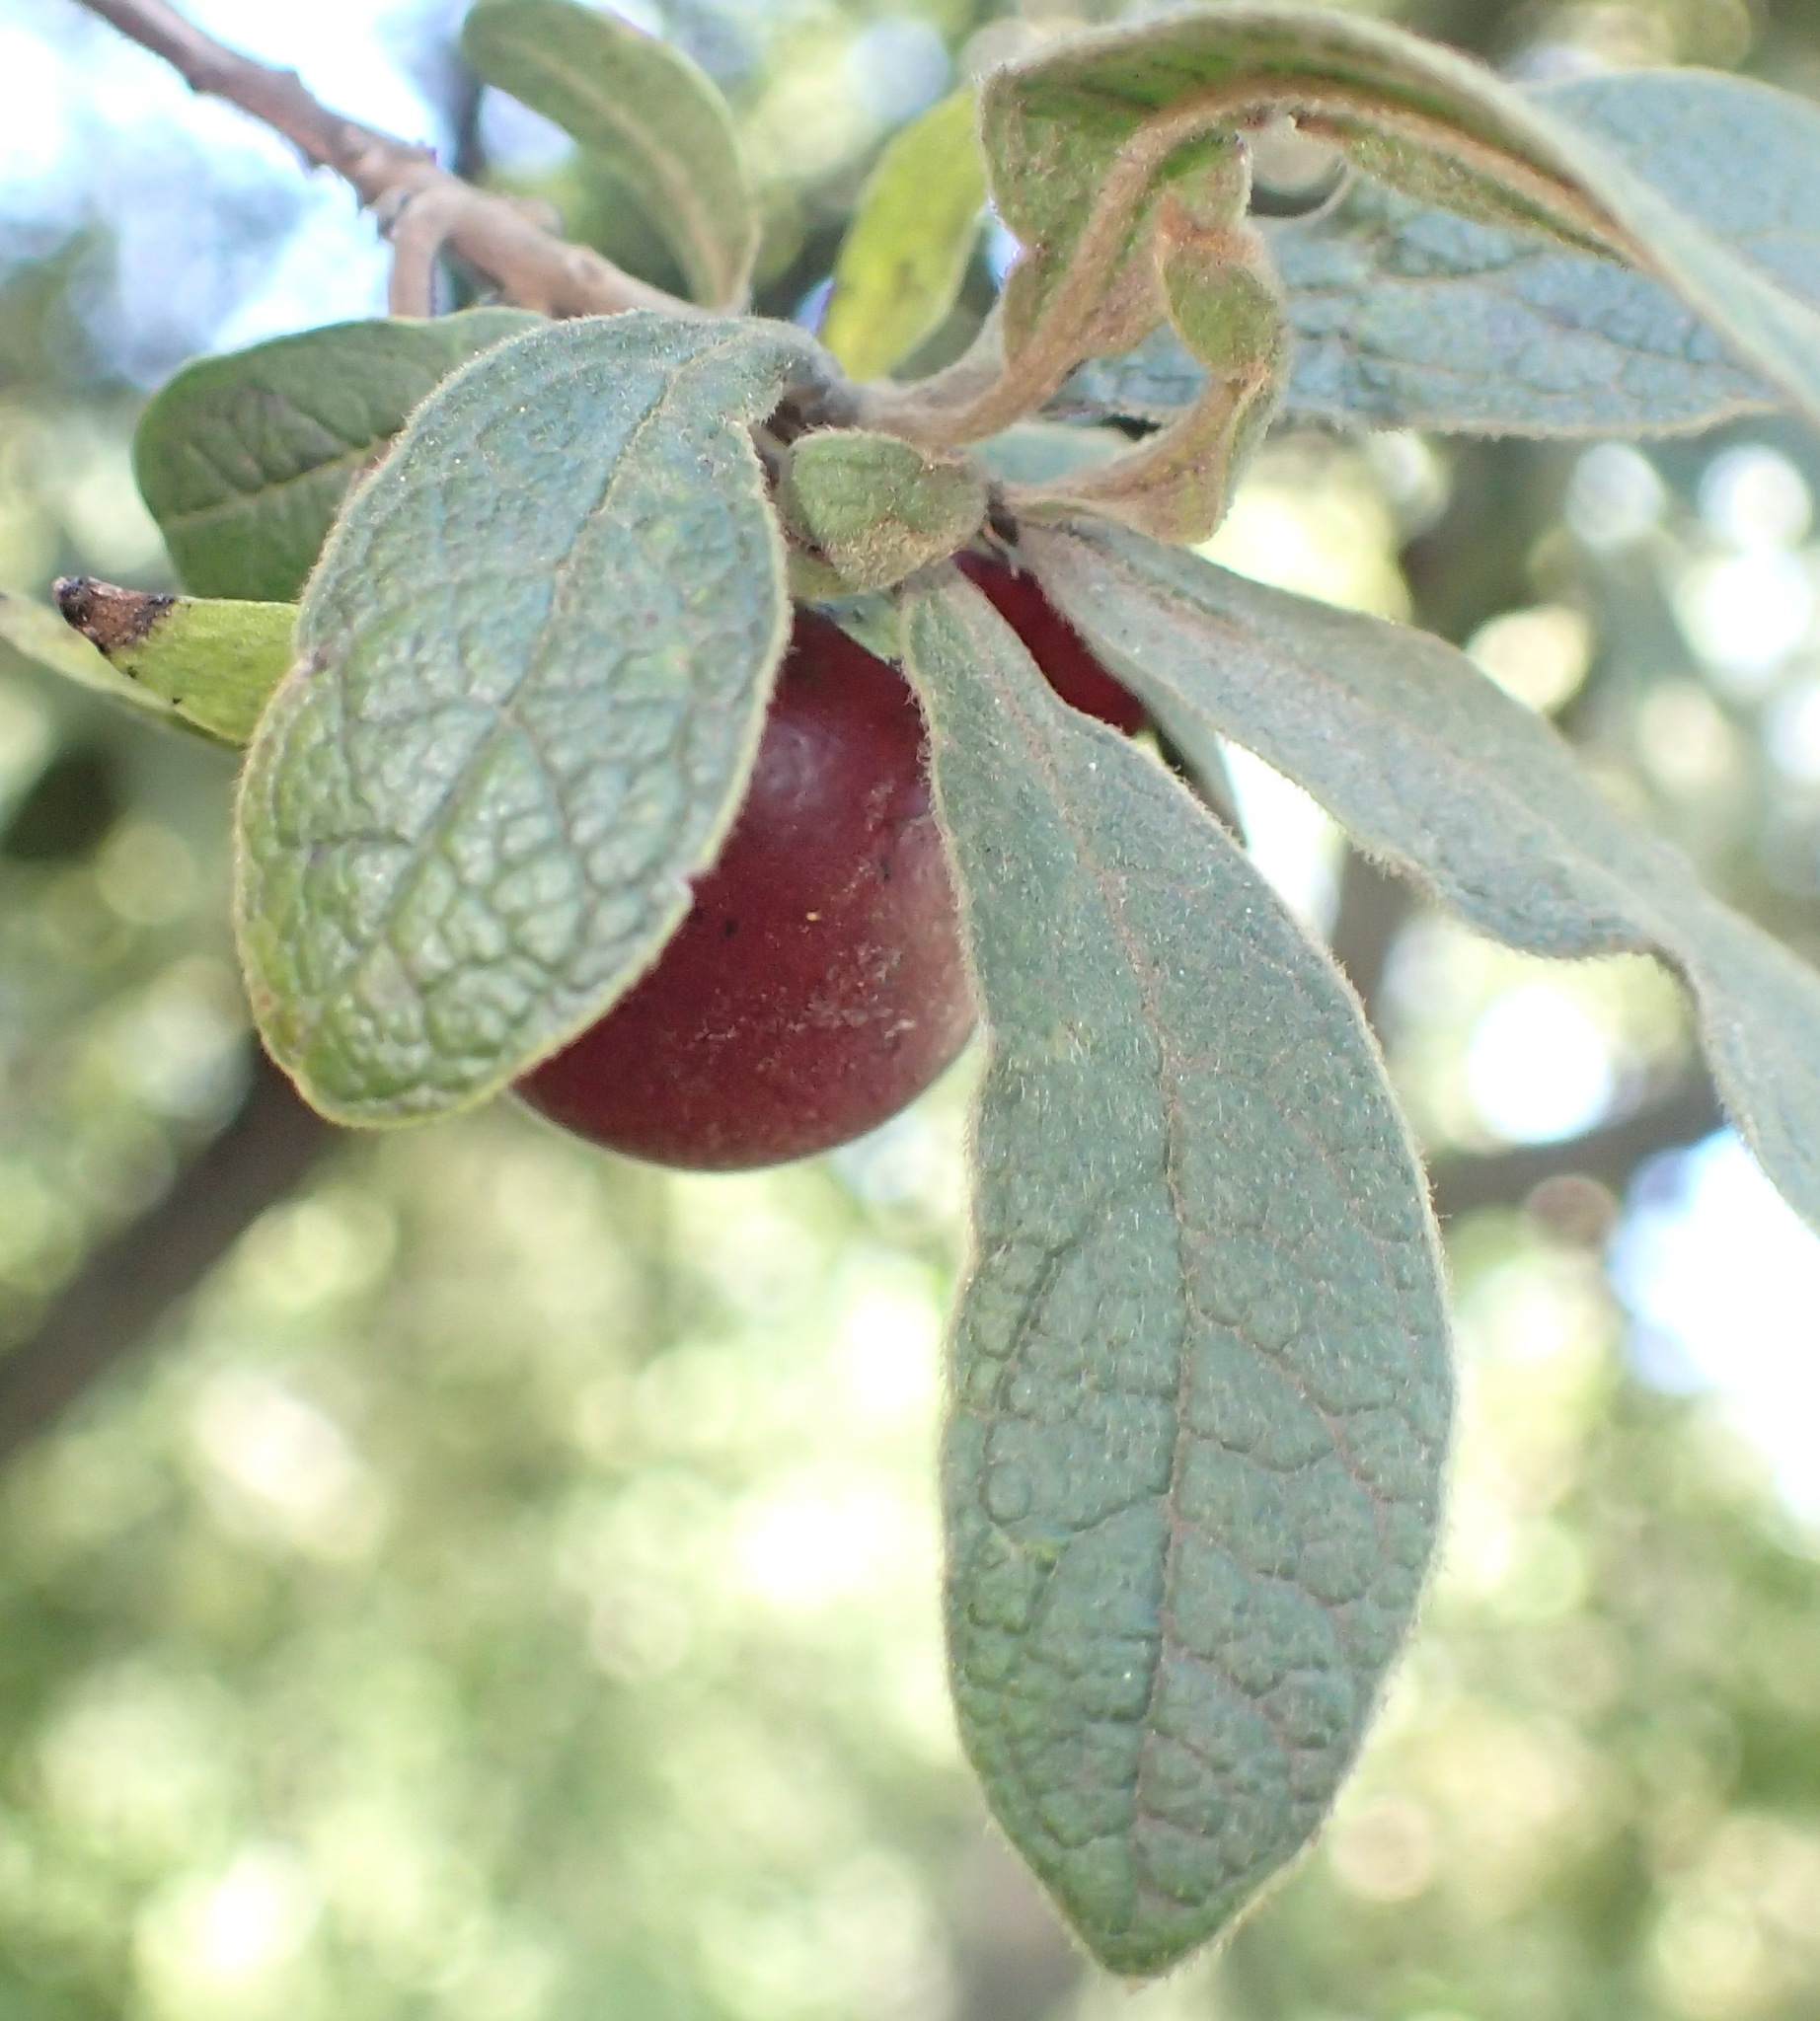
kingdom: Plantae
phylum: Tracheophyta
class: Magnoliopsida
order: Ericales
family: Ebenaceae
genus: Diospyros
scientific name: Diospyros lycioides
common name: Red star apple
